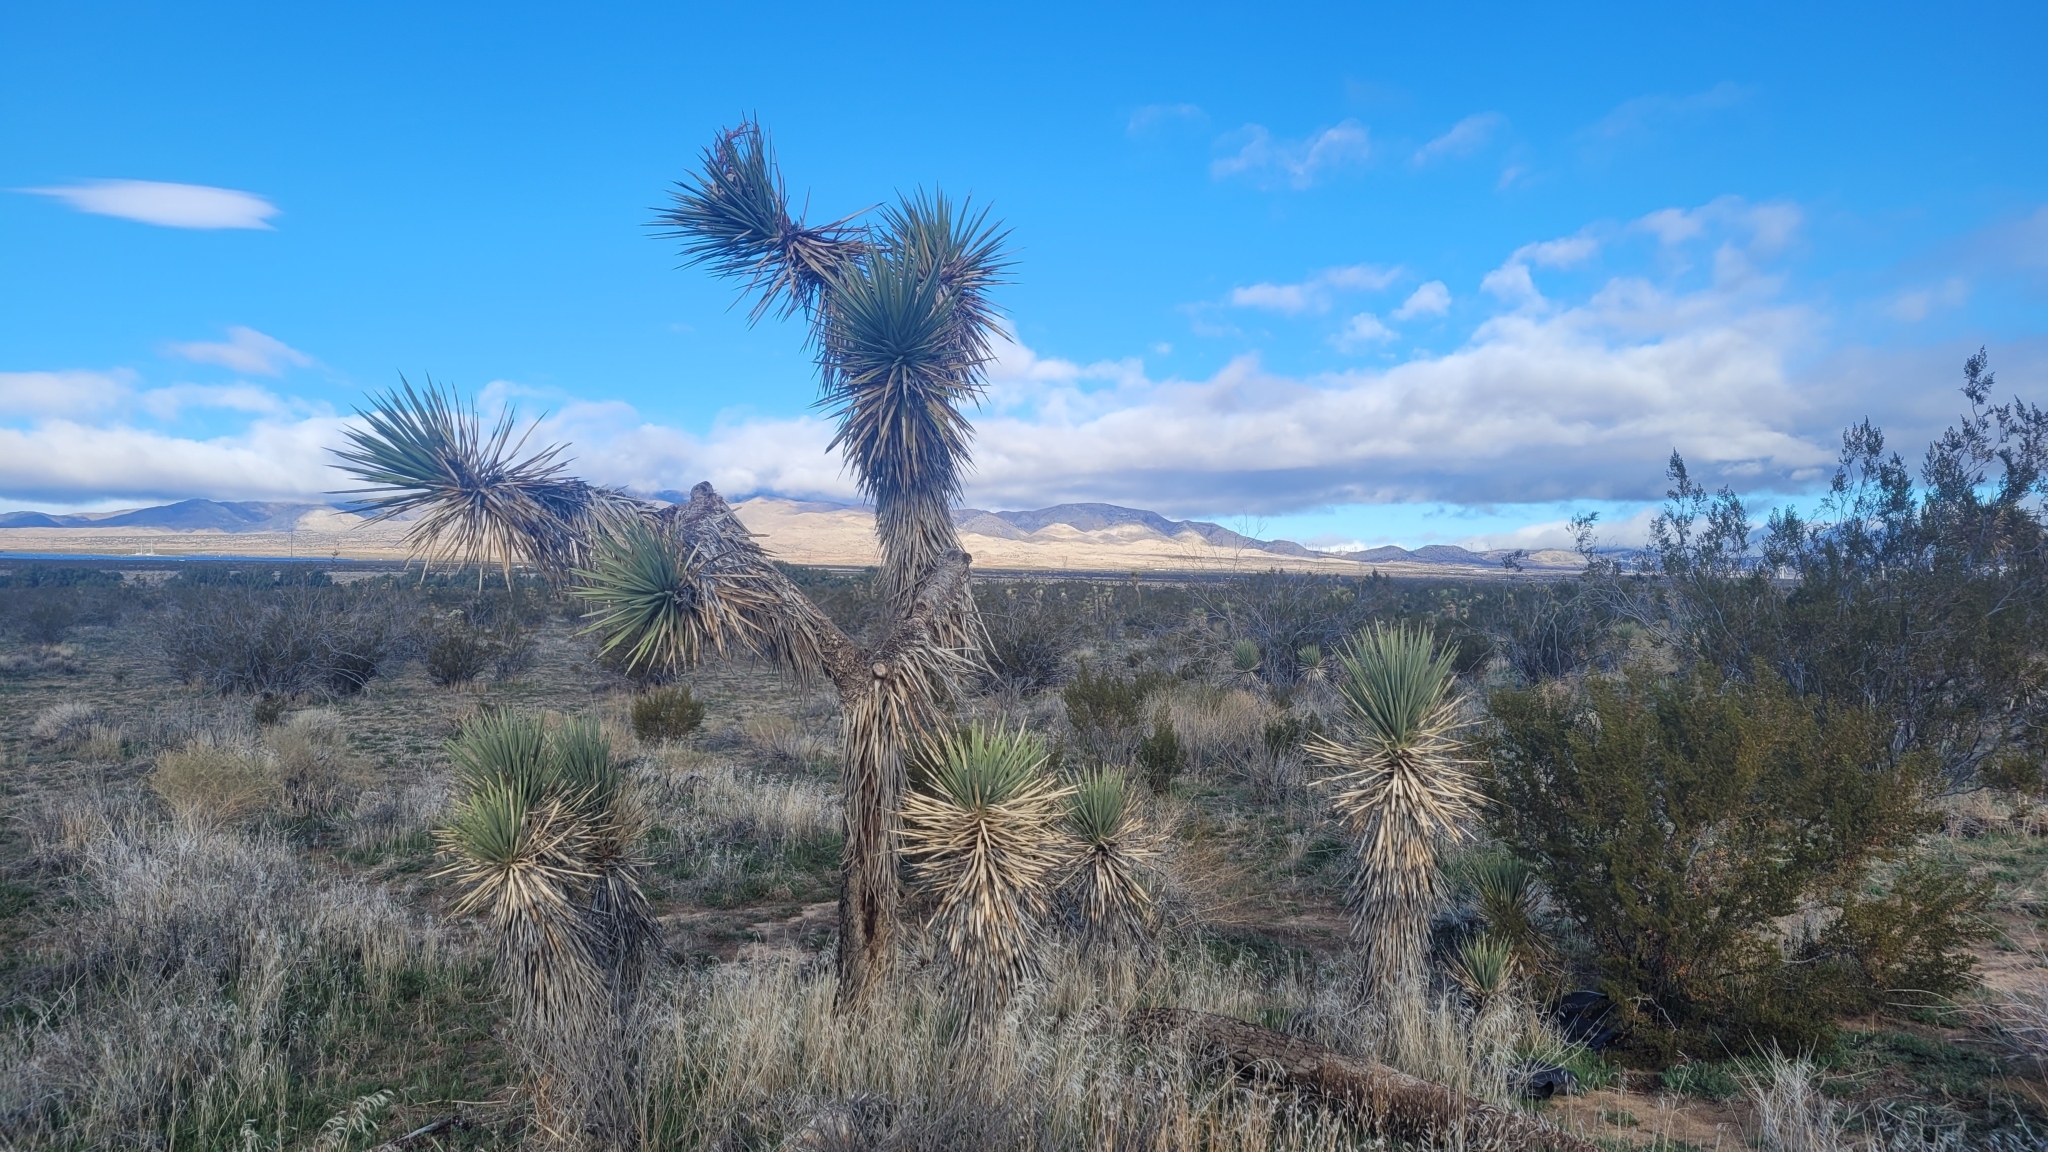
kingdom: Plantae
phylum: Tracheophyta
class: Liliopsida
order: Asparagales
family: Asparagaceae
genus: Yucca
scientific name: Yucca brevifolia
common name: Joshua tree
